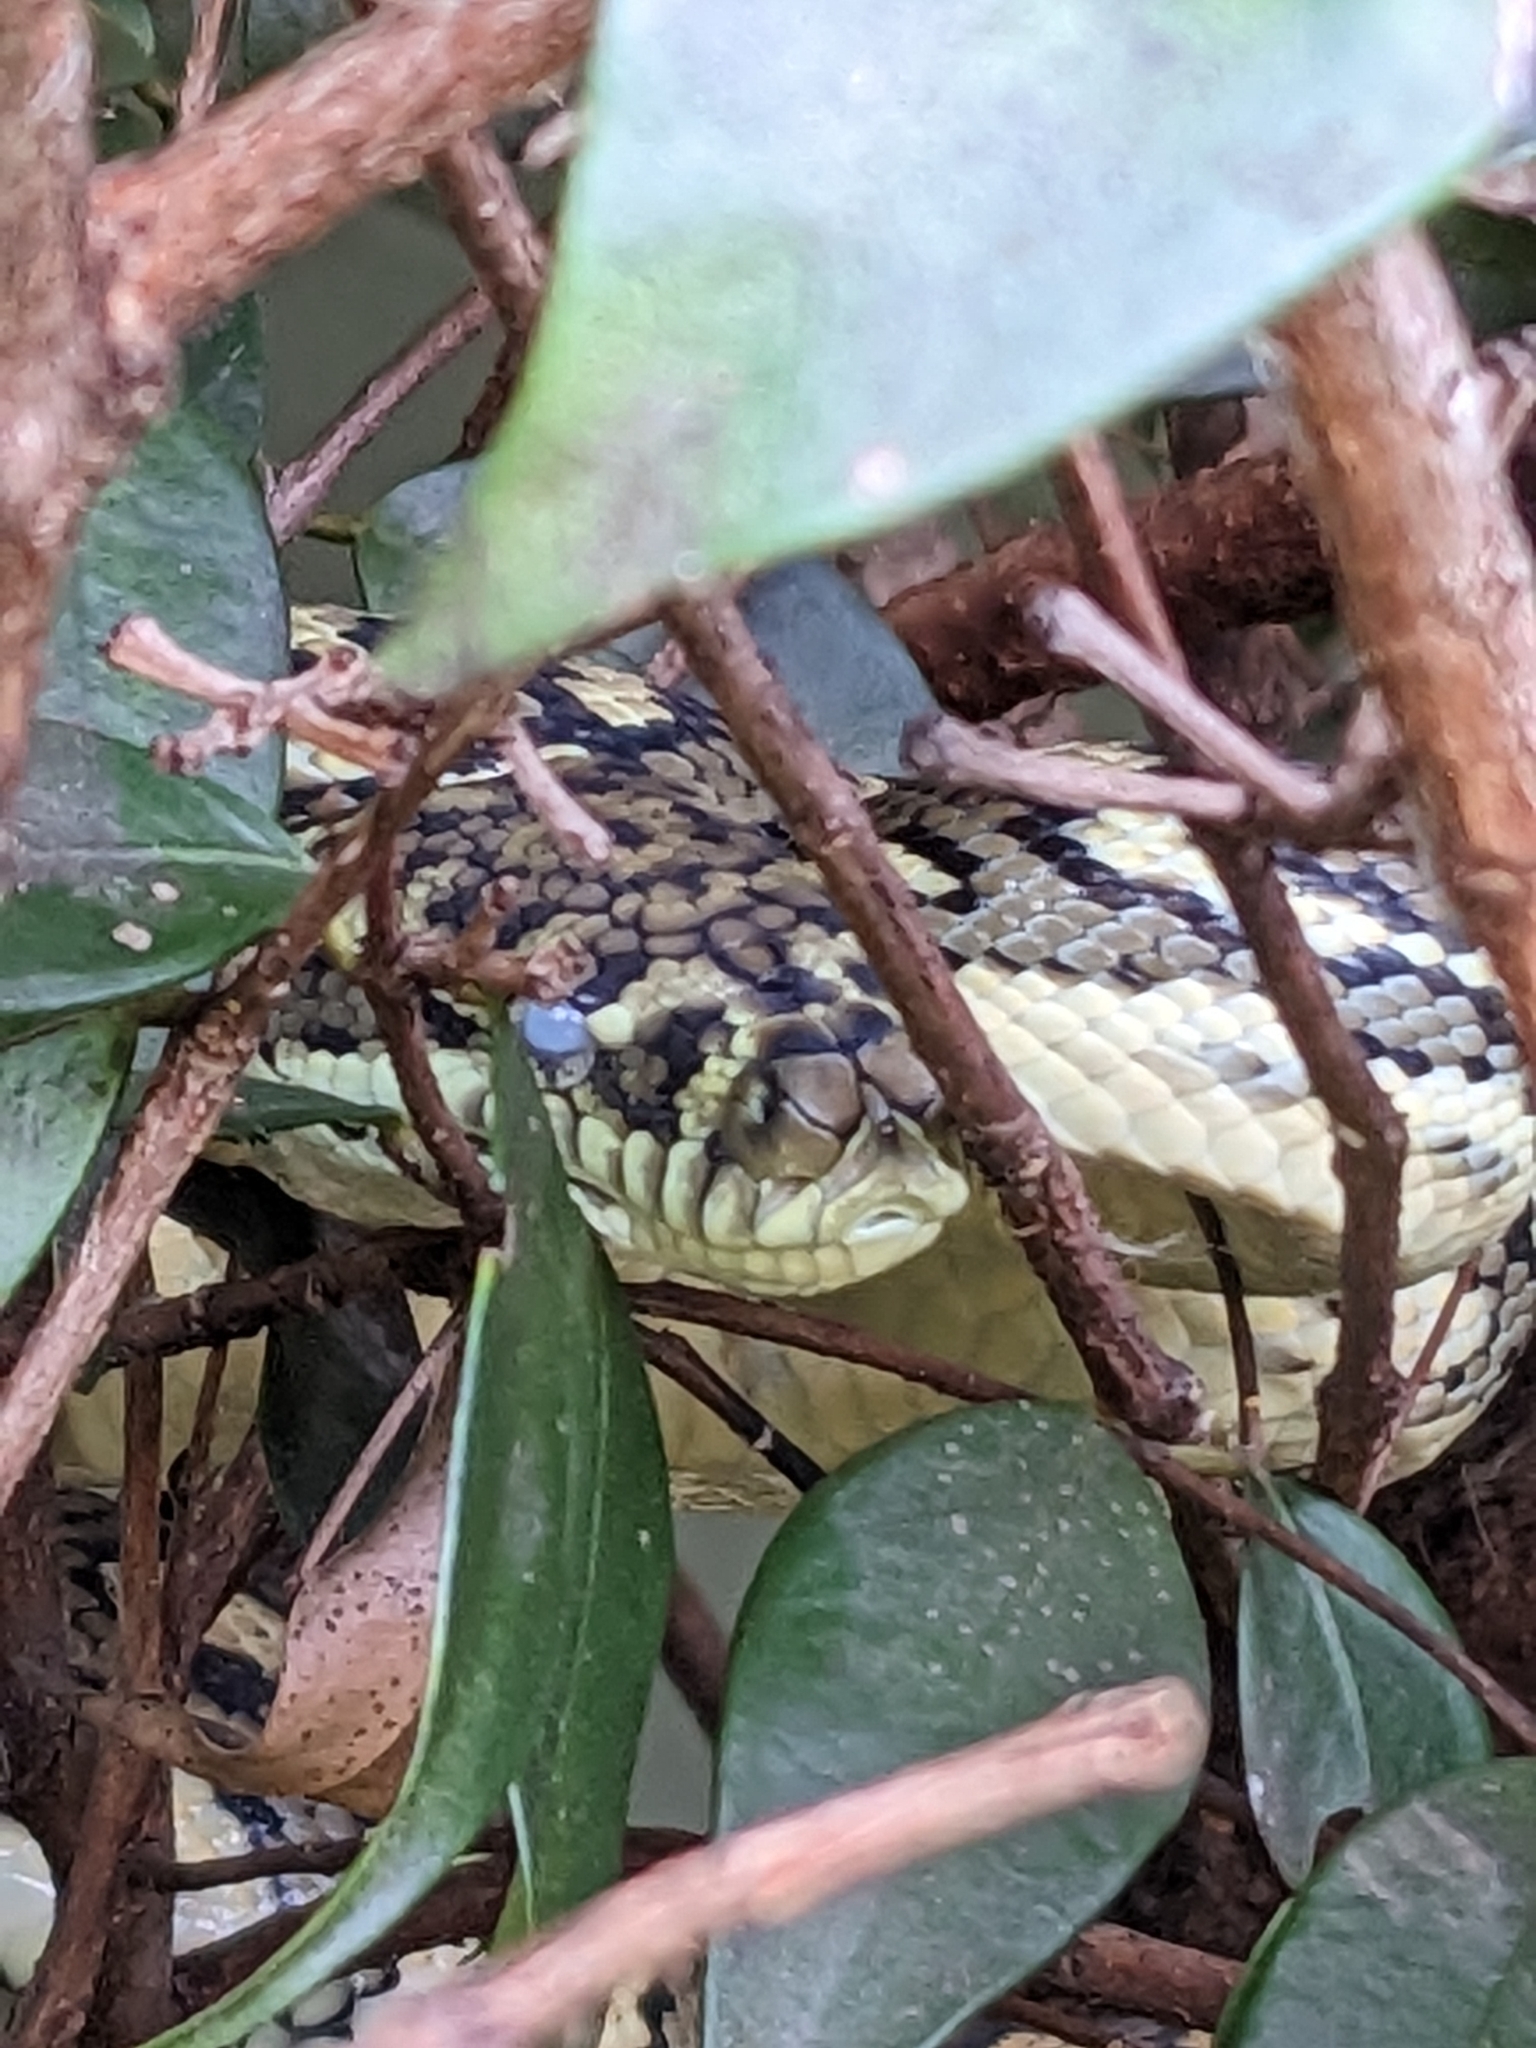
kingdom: Animalia
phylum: Chordata
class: Squamata
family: Pythonidae
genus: Morelia
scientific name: Morelia spilota
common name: Carpet python
